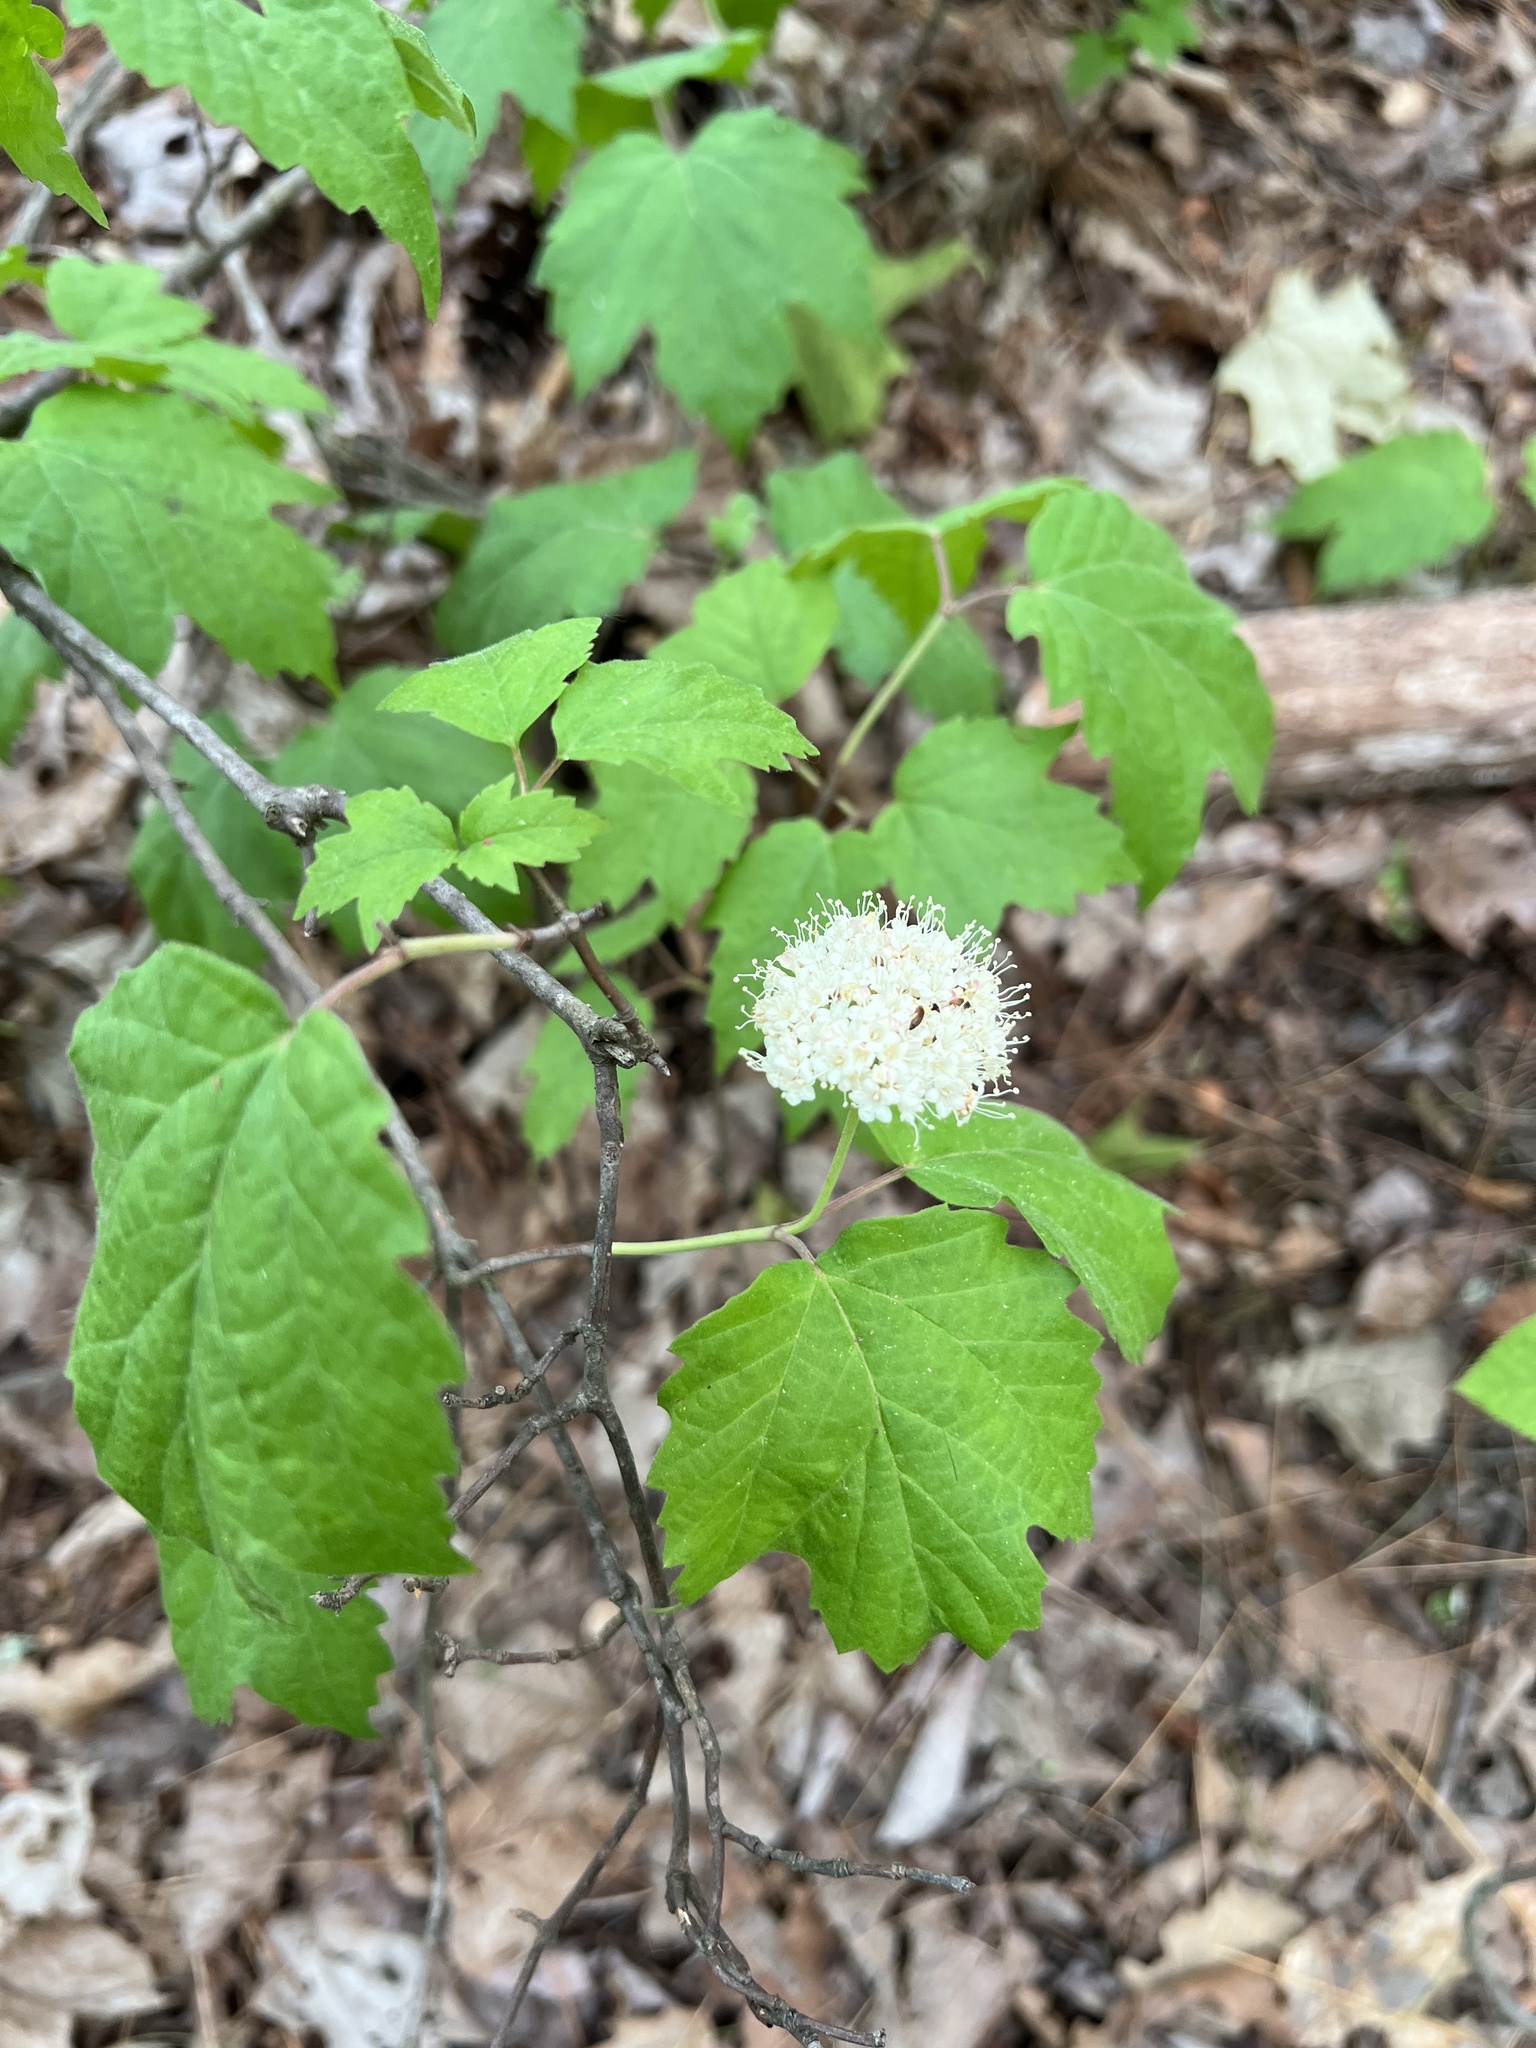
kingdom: Plantae
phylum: Tracheophyta
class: Magnoliopsida
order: Dipsacales
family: Viburnaceae
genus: Viburnum
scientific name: Viburnum acerifolium
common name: Dockmackie
